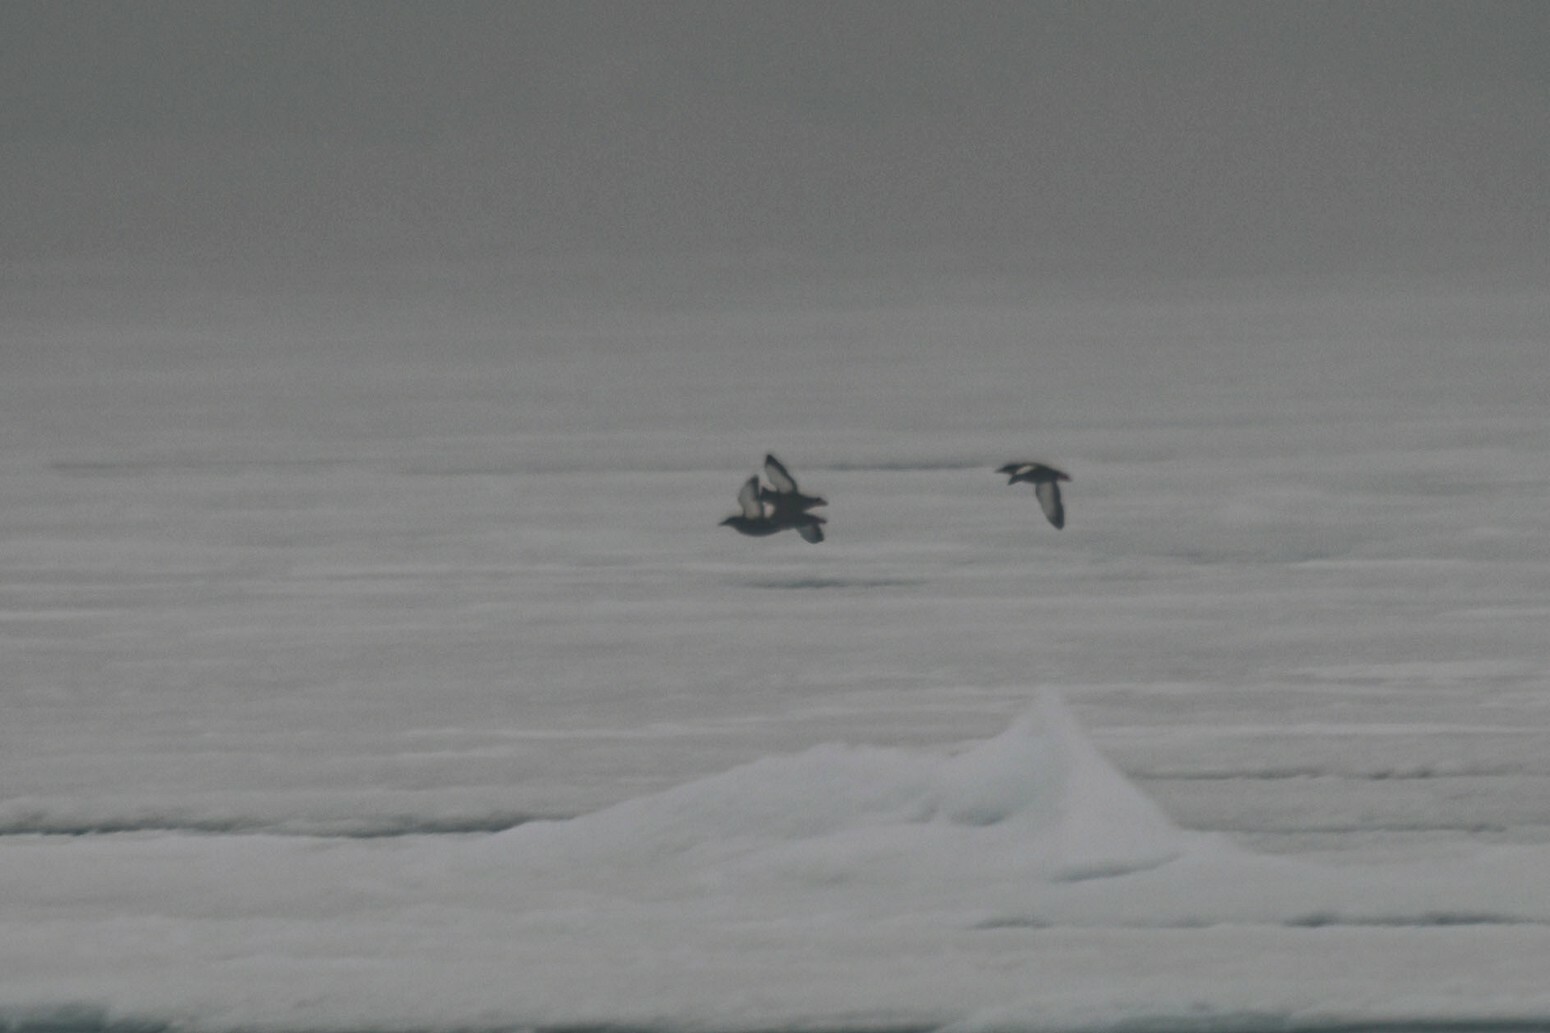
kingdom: Animalia
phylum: Chordata
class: Aves
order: Charadriiformes
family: Alcidae
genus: Cepphus
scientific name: Cepphus grylle
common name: Black guillemot
